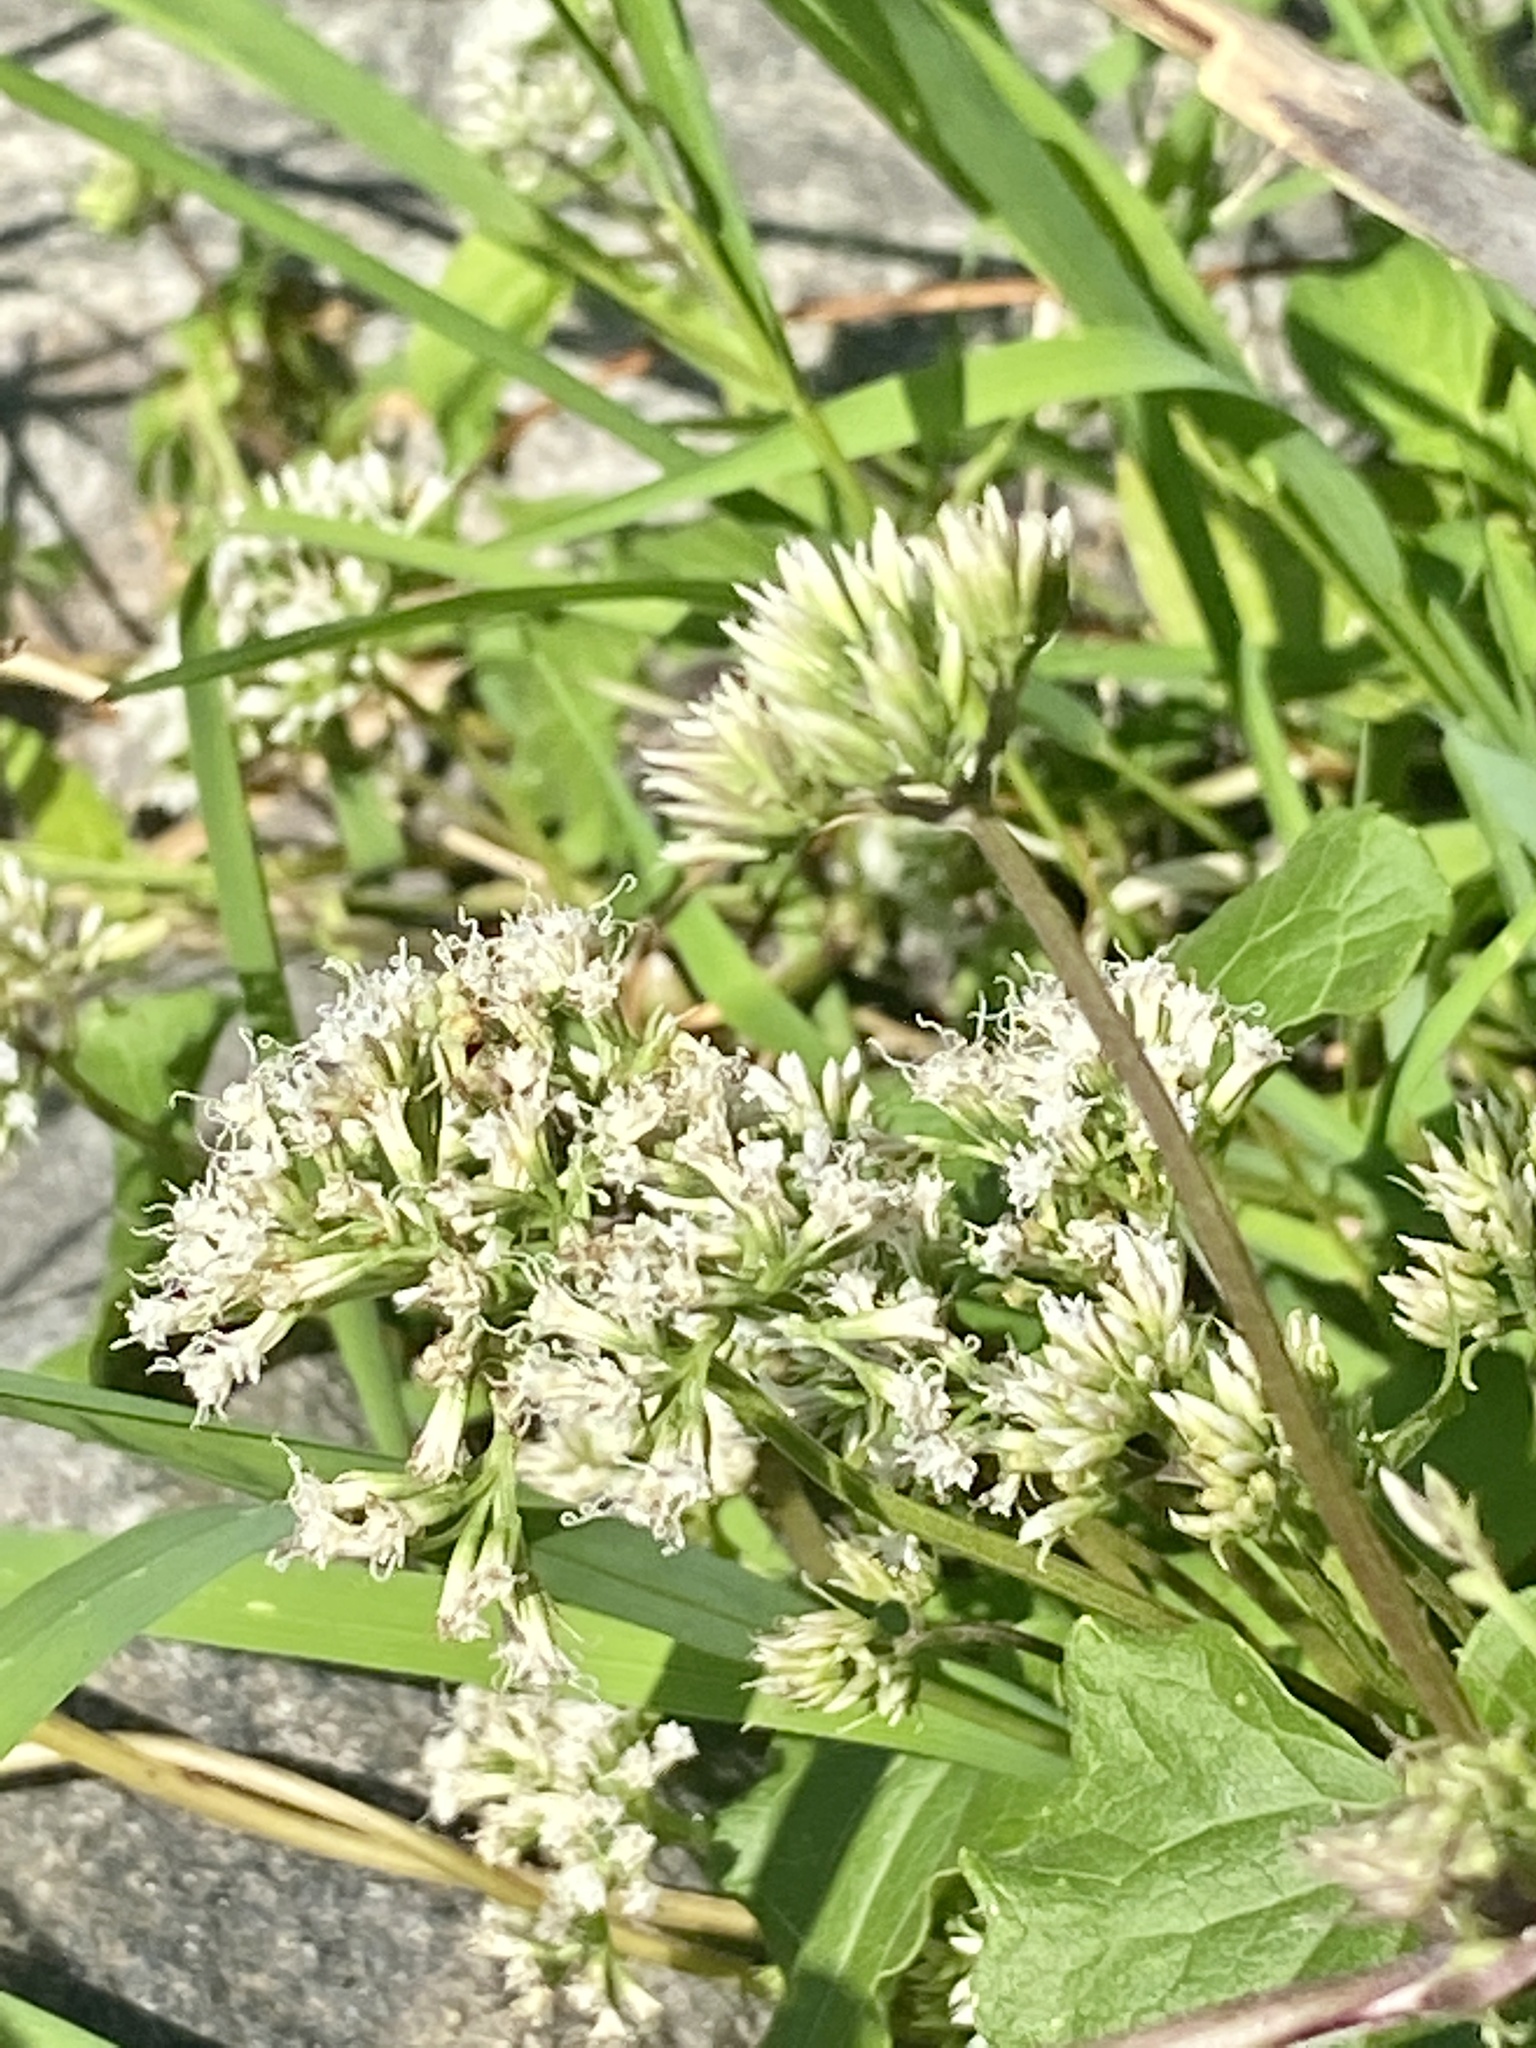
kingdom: Plantae
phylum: Tracheophyta
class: Magnoliopsida
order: Asterales
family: Asteraceae
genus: Mikania
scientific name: Mikania scandens
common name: Climbing hempvine
